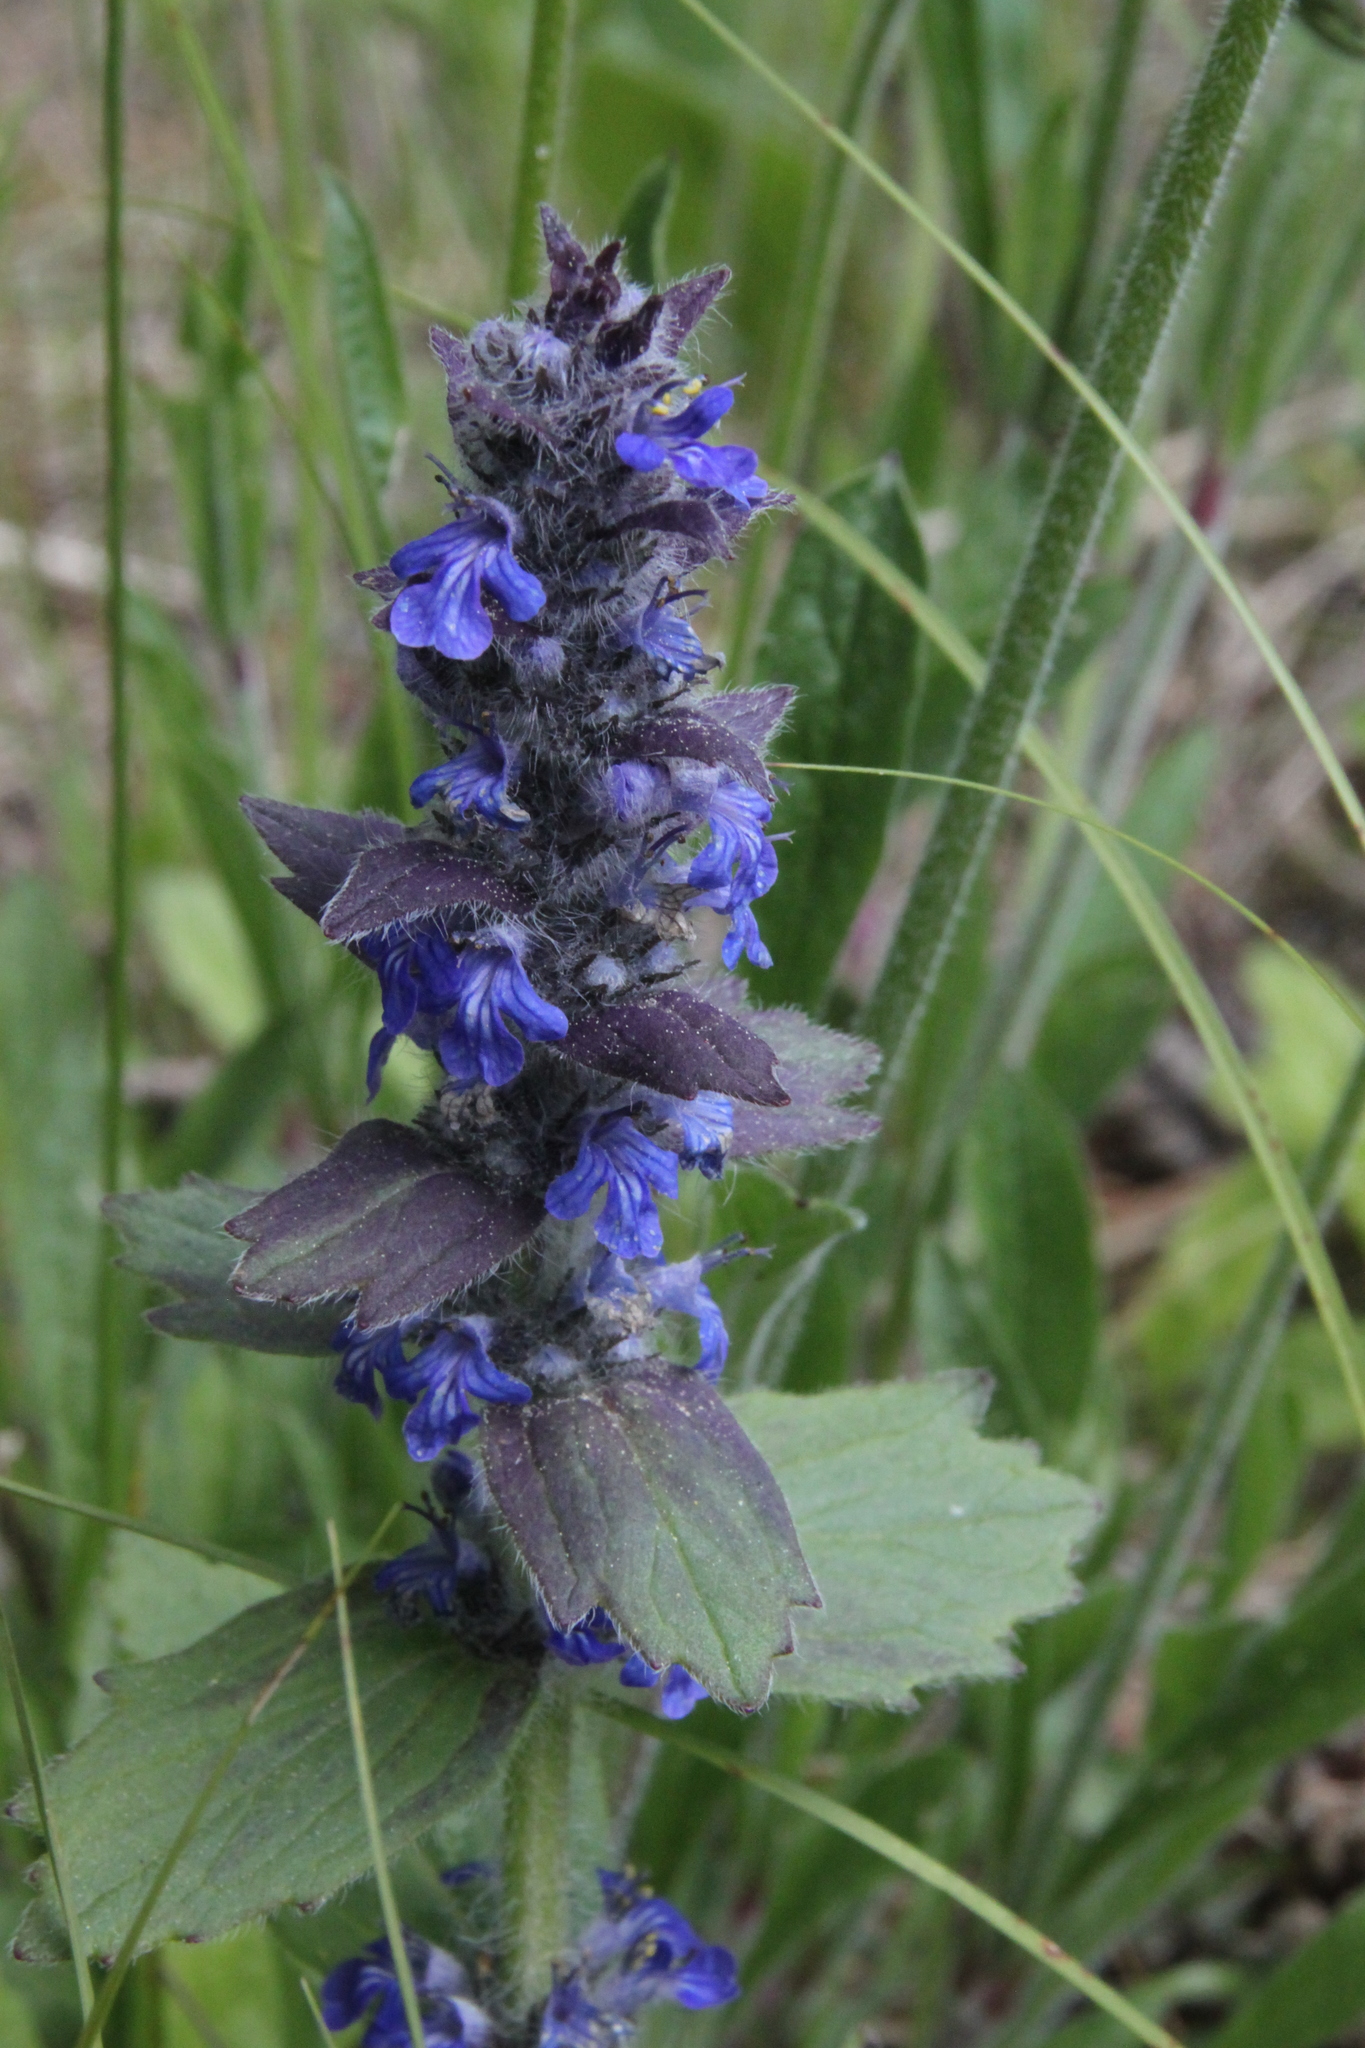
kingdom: Plantae
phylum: Tracheophyta
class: Magnoliopsida
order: Lamiales
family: Lamiaceae
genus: Ajuga
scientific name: Ajuga genevensis
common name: Blue bugle
